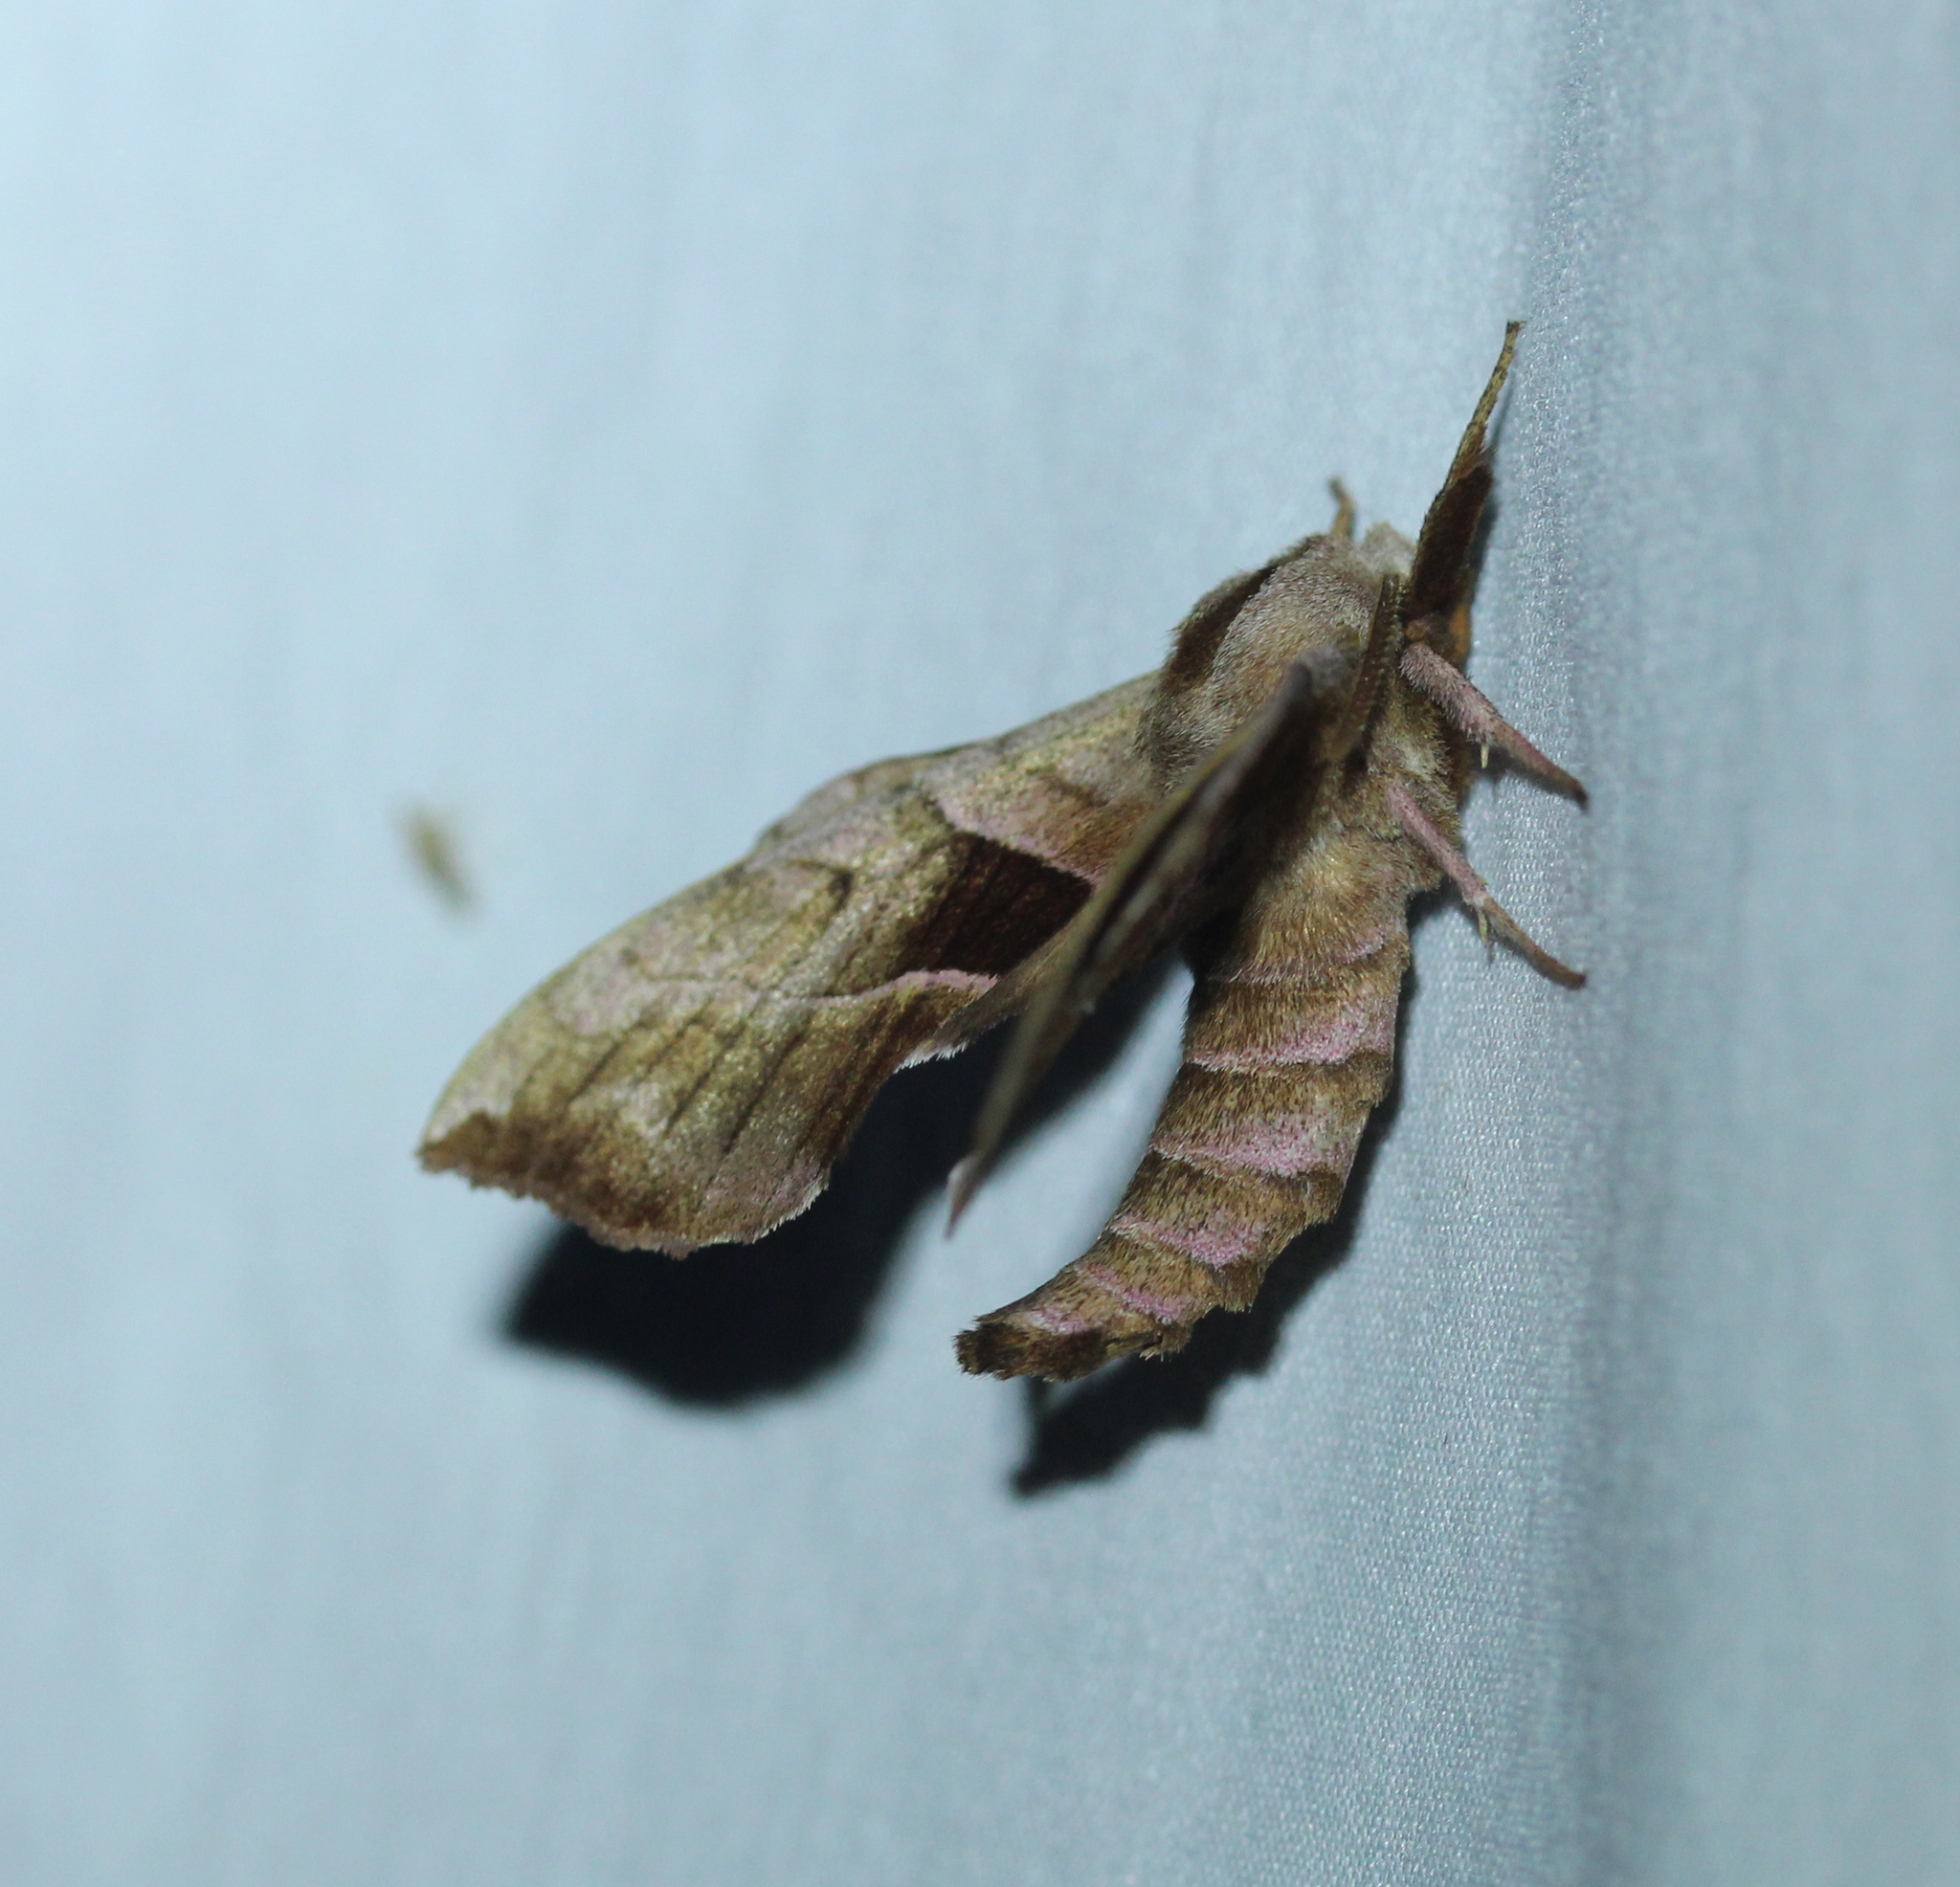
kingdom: Animalia
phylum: Arthropoda
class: Insecta
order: Lepidoptera
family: Sphingidae
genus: Amorpha
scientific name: Amorpha juglandis
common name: Walnut sphinx
